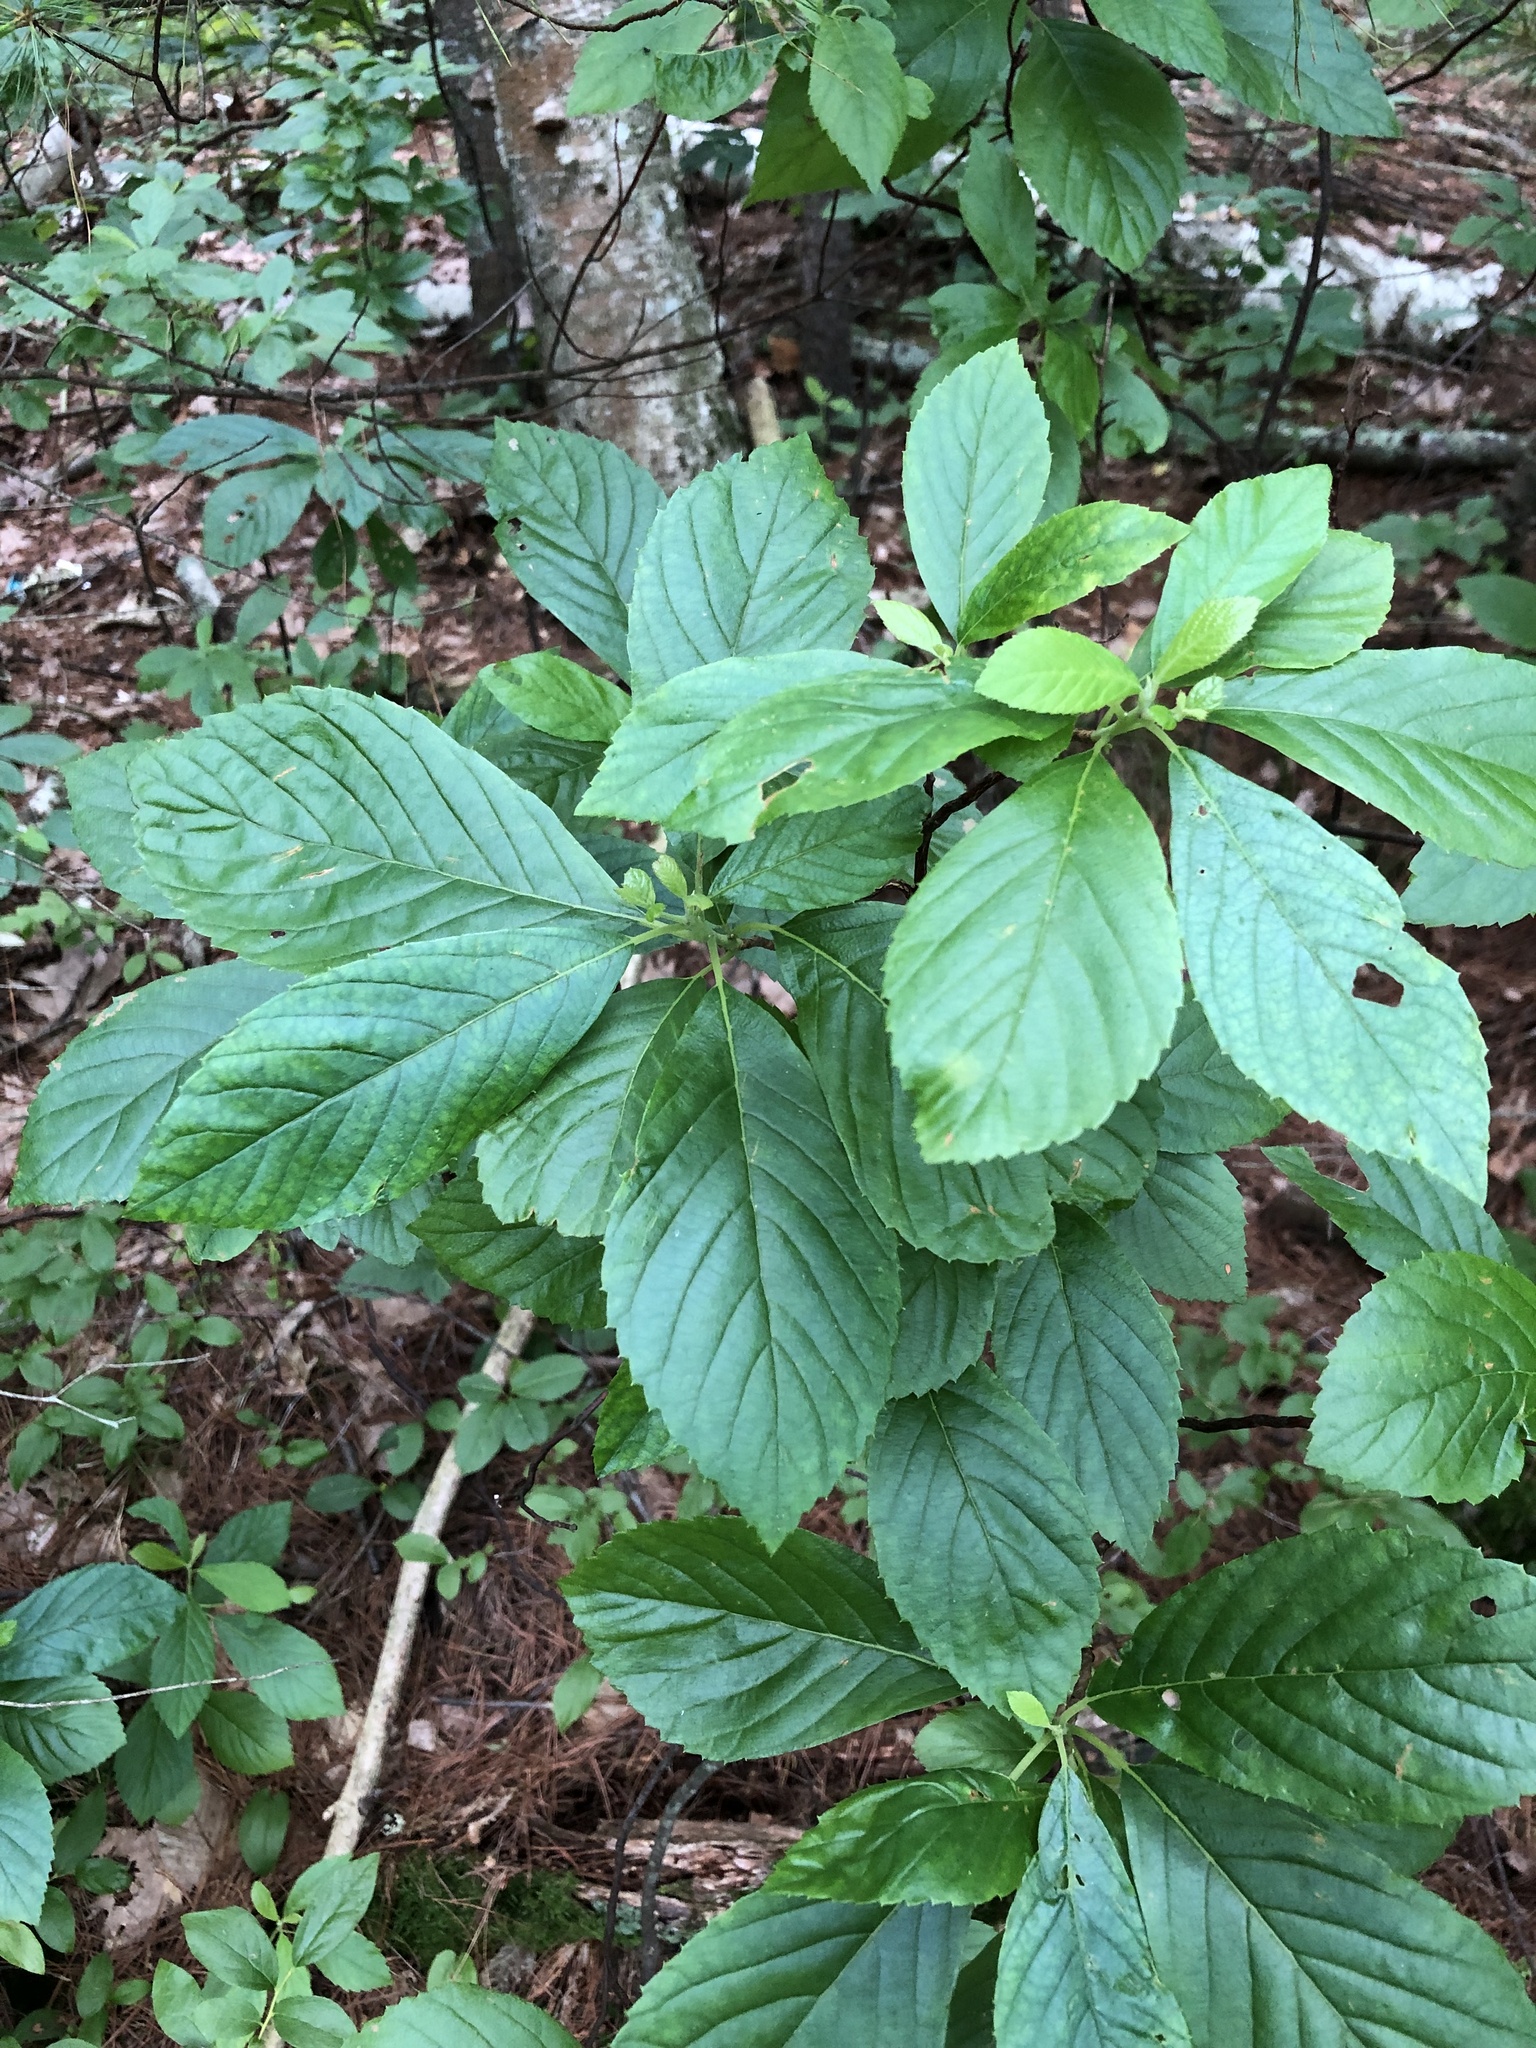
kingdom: Plantae
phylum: Tracheophyta
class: Magnoliopsida
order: Ericales
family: Clethraceae
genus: Clethra
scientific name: Clethra alnifolia
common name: Sweet pepperbush
